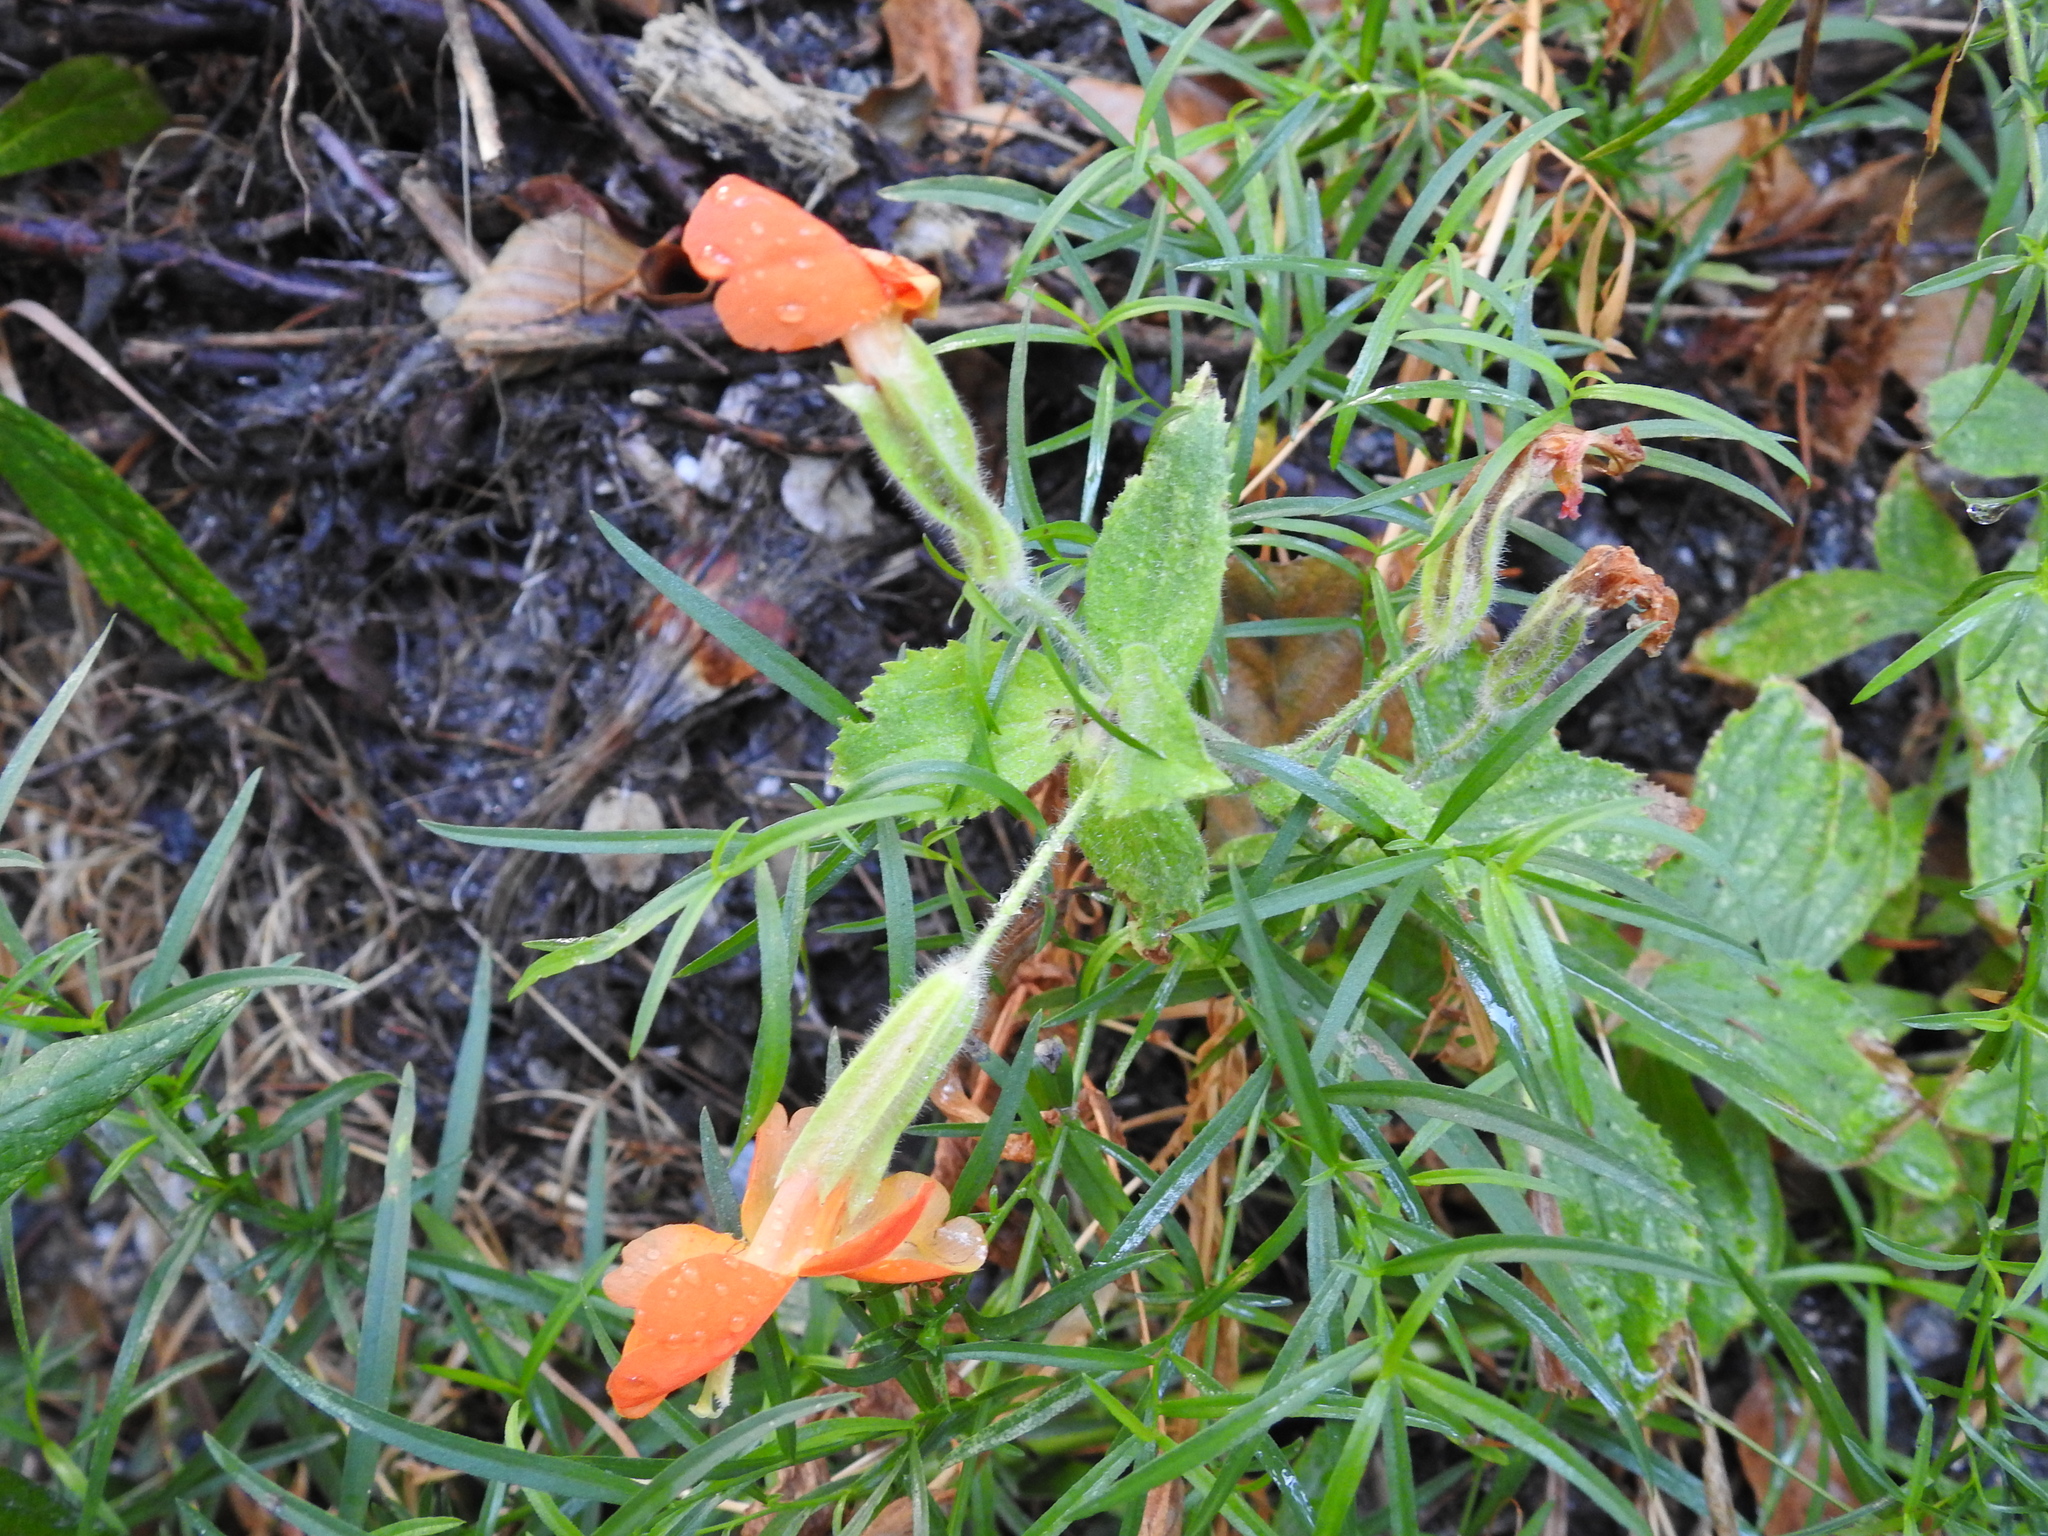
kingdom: Plantae
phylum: Tracheophyta
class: Magnoliopsida
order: Lamiales
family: Phrymaceae
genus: Erythranthe
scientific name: Erythranthe cardinalis
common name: Scarlet monkey-flower
